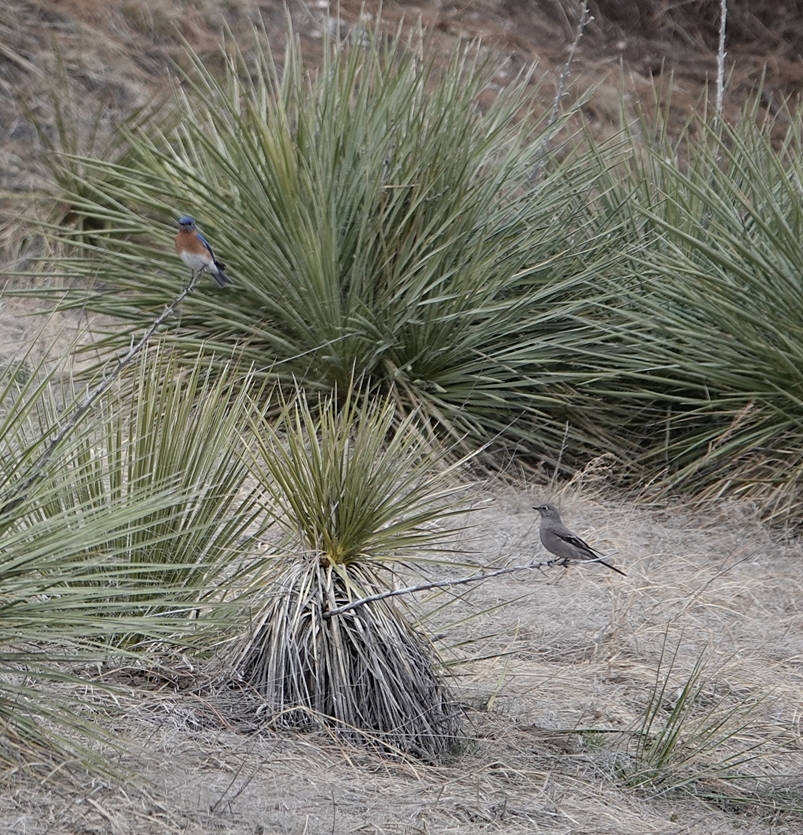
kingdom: Animalia
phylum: Chordata
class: Aves
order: Passeriformes
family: Turdidae
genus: Sialia
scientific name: Sialia sialis
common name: Eastern bluebird
